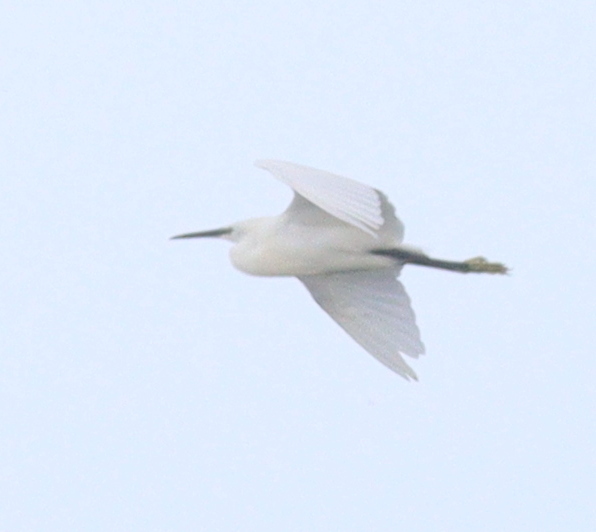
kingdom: Animalia
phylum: Chordata
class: Aves
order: Pelecaniformes
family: Ardeidae
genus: Egretta
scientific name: Egretta garzetta
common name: Little egret
